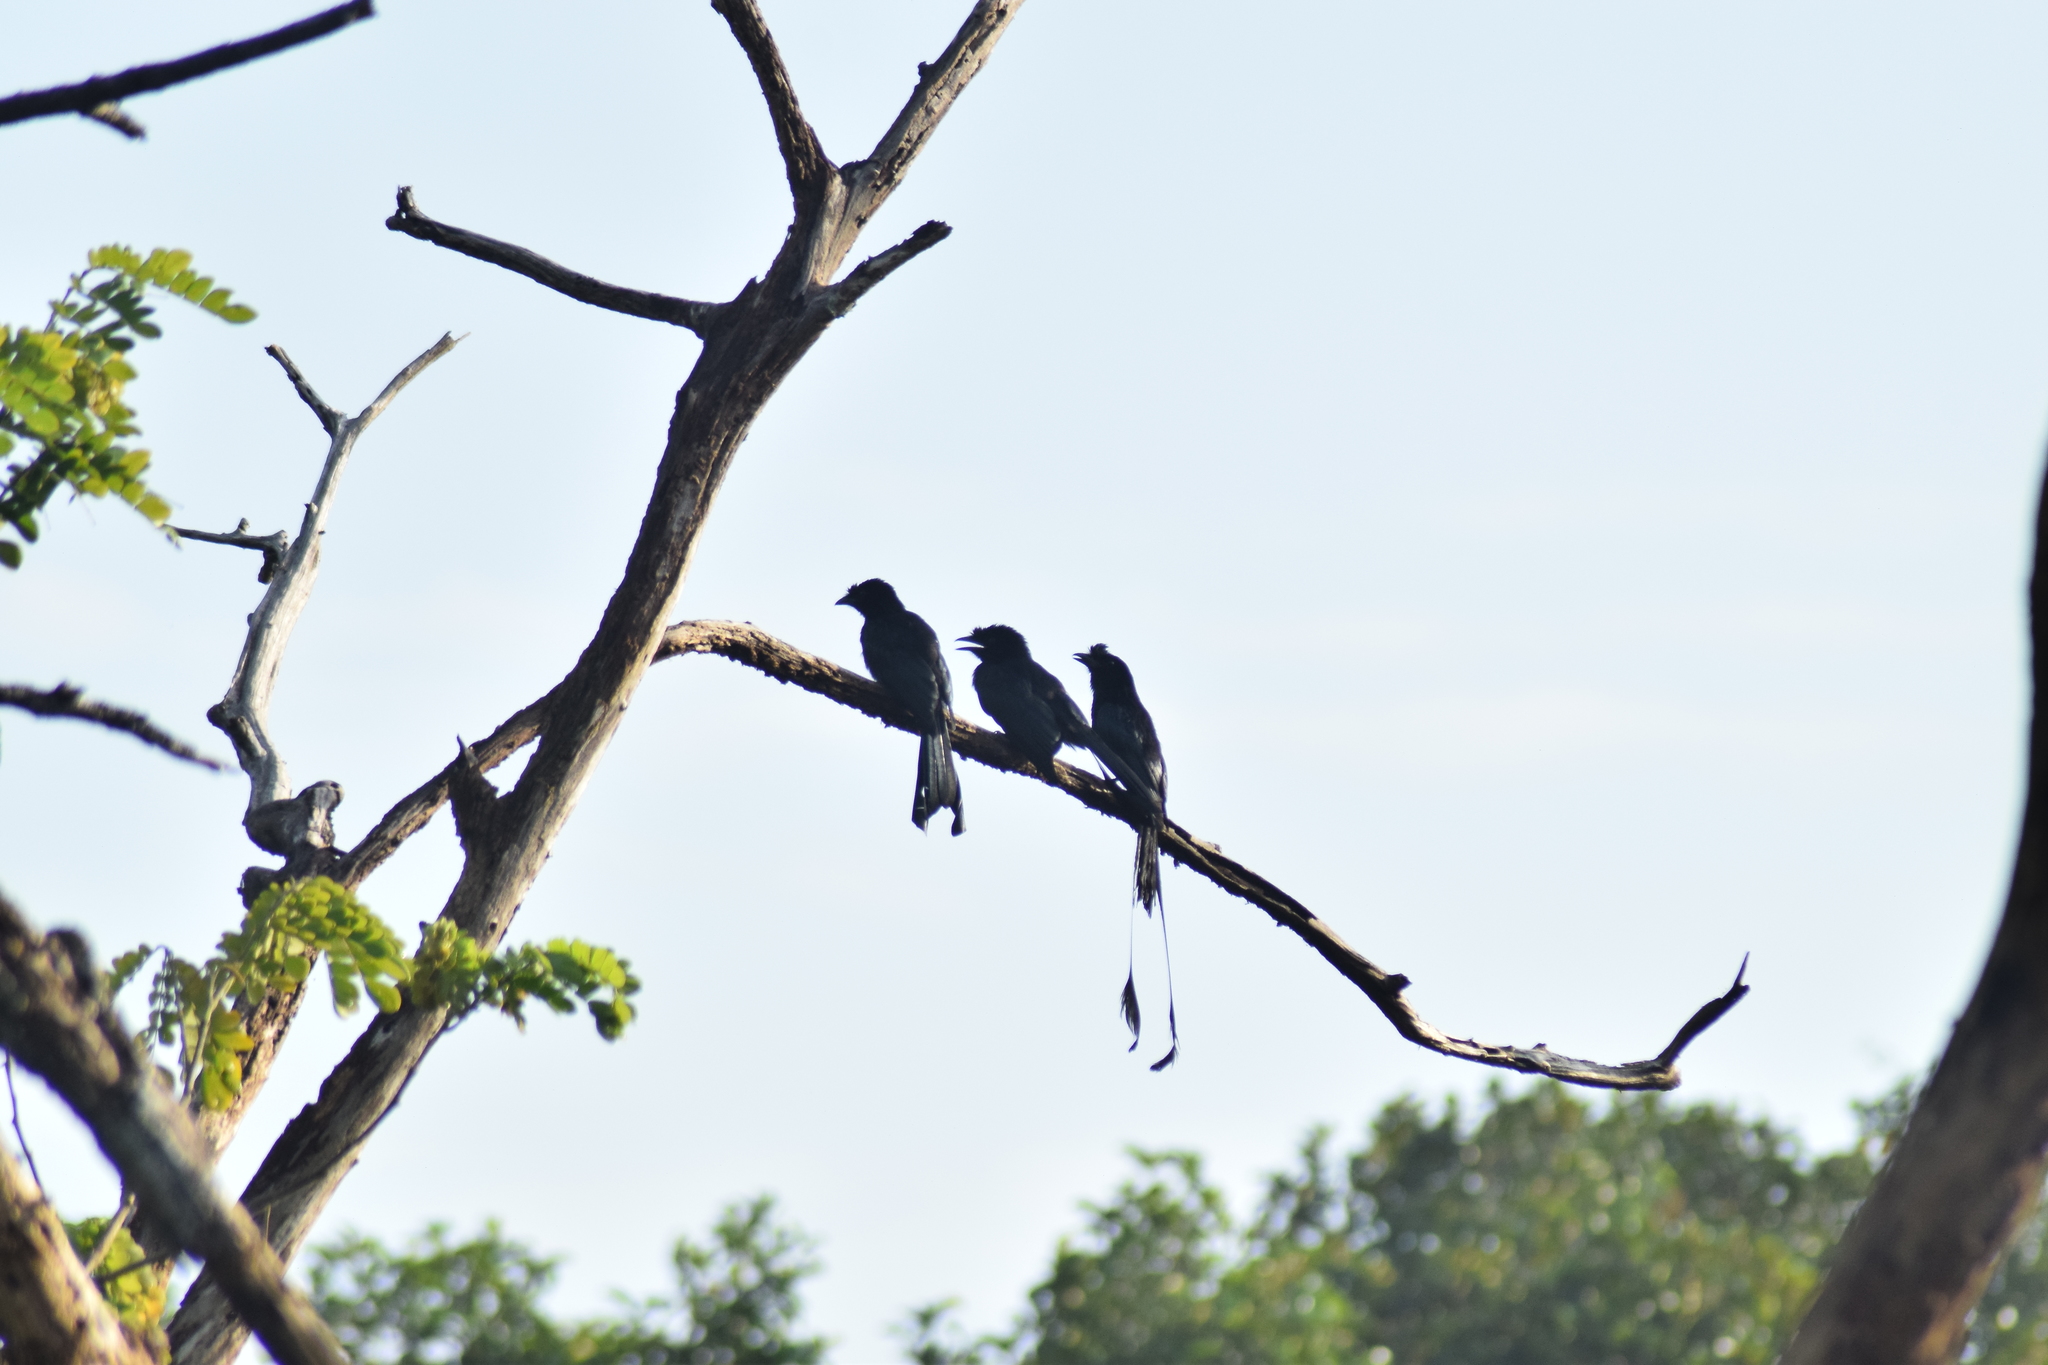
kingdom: Animalia
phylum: Chordata
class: Aves
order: Passeriformes
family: Dicruridae
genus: Dicrurus
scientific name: Dicrurus paradiseus
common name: Greater racket-tailed drongo
